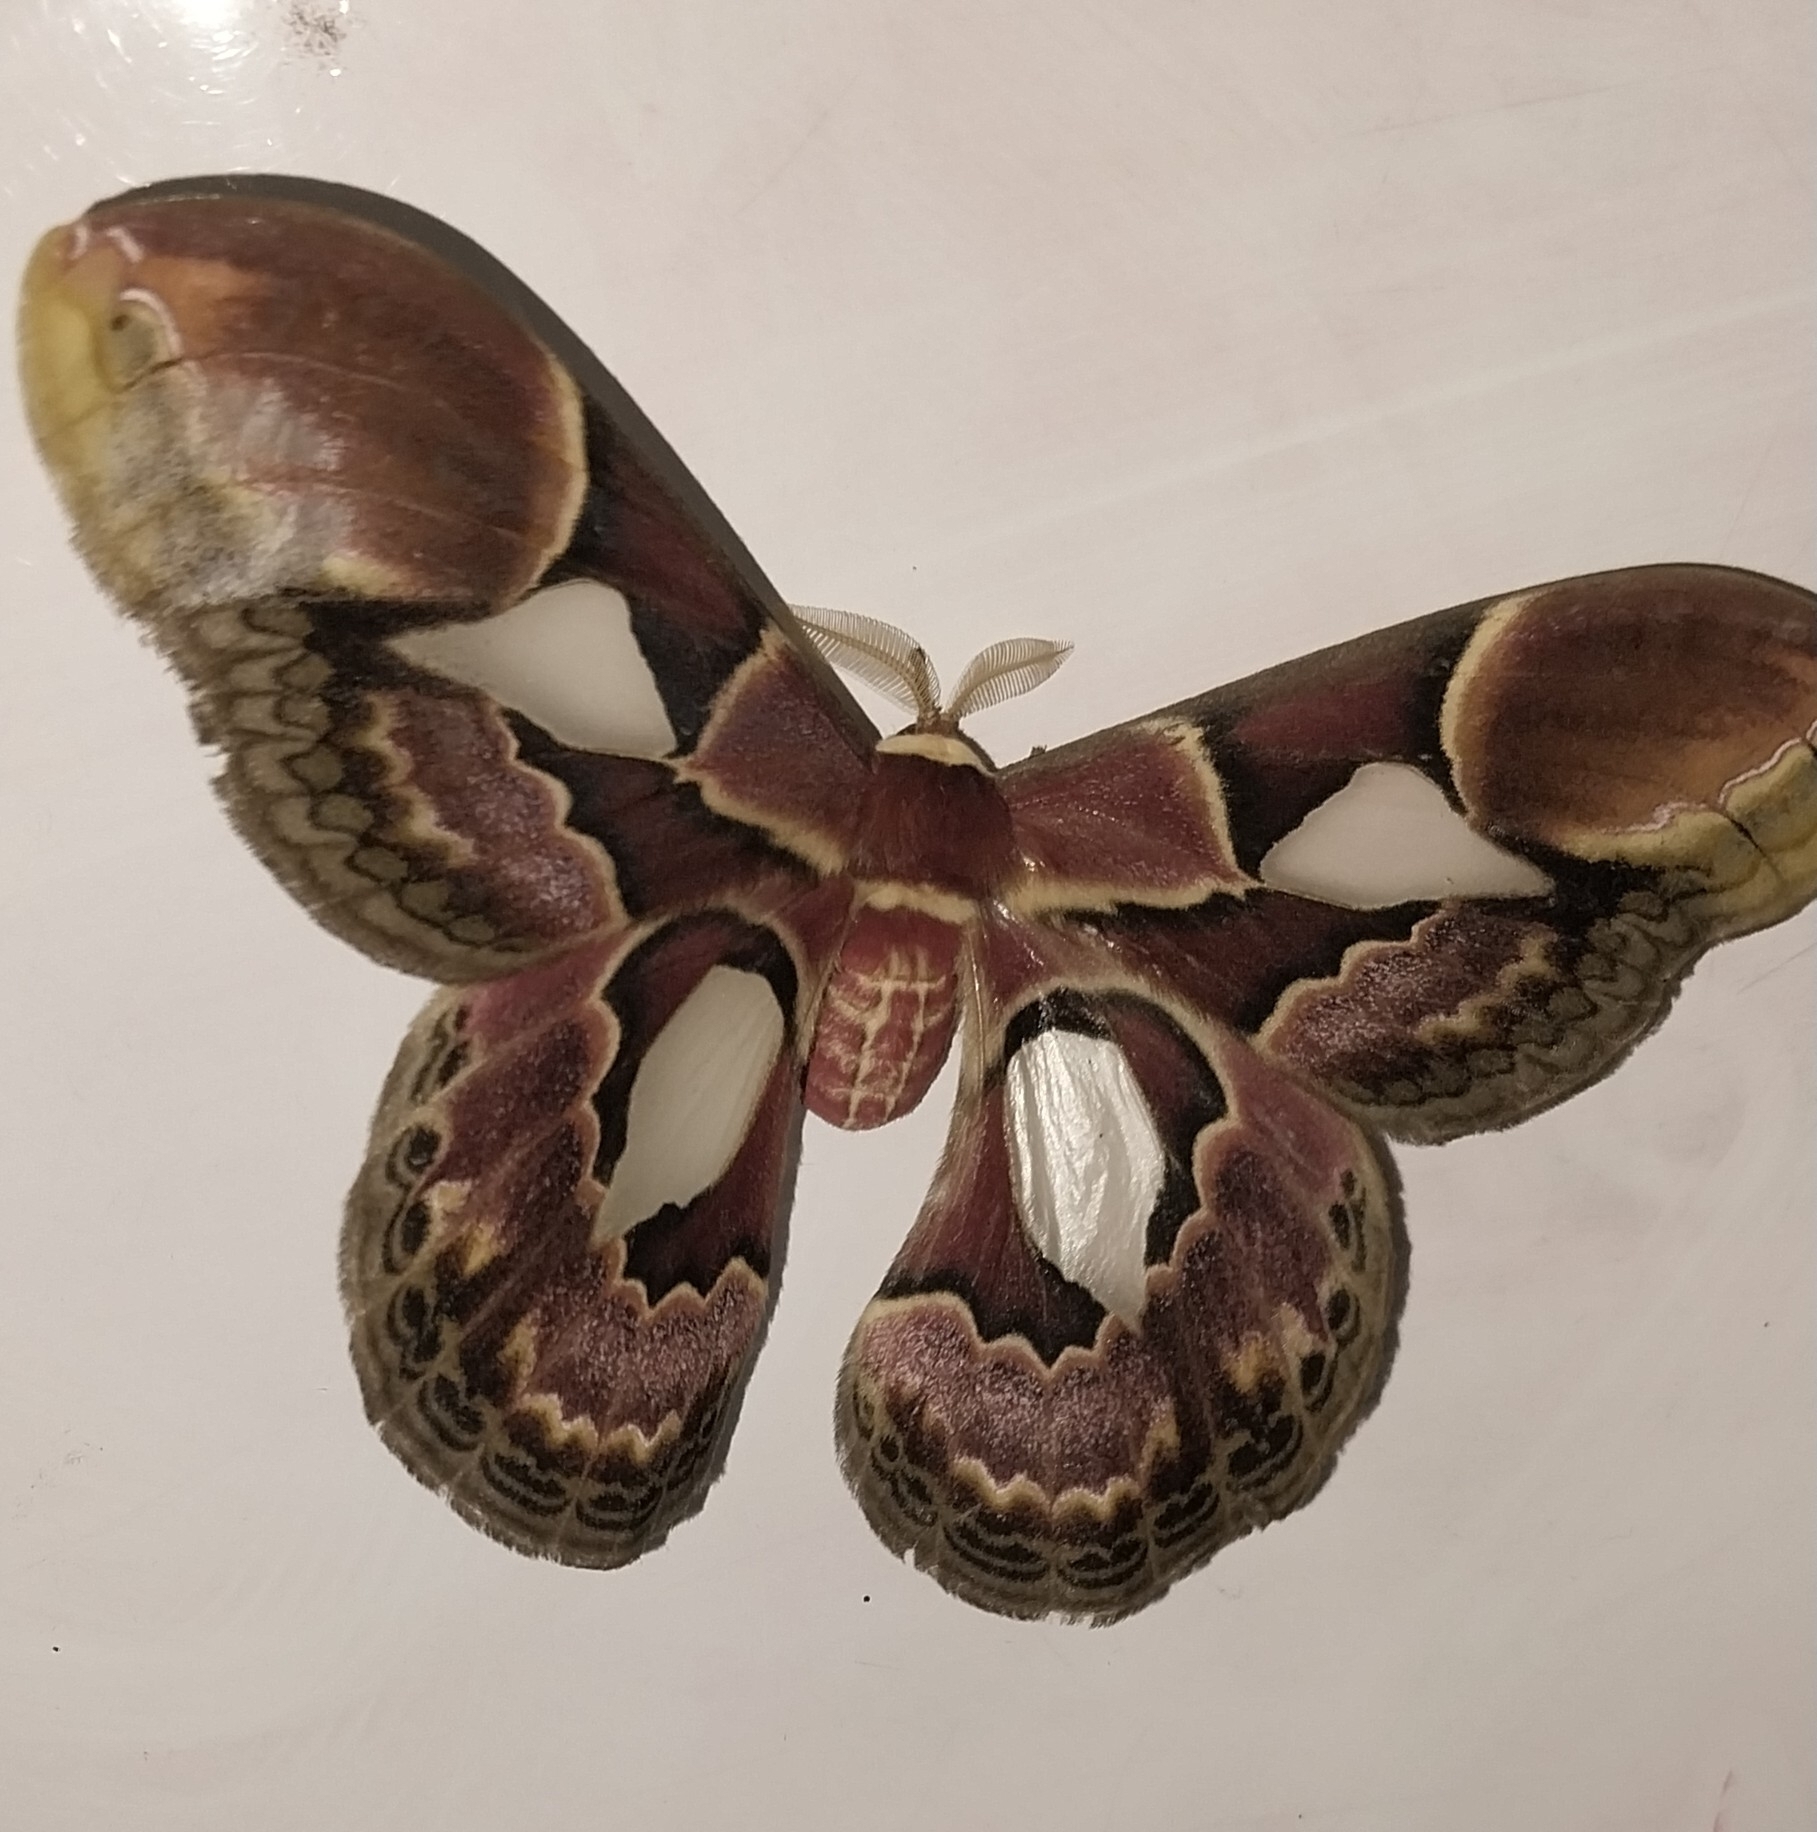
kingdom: Animalia
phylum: Arthropoda
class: Insecta
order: Lepidoptera
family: Saturniidae
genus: Rothschildia
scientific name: Rothschildia erycina
